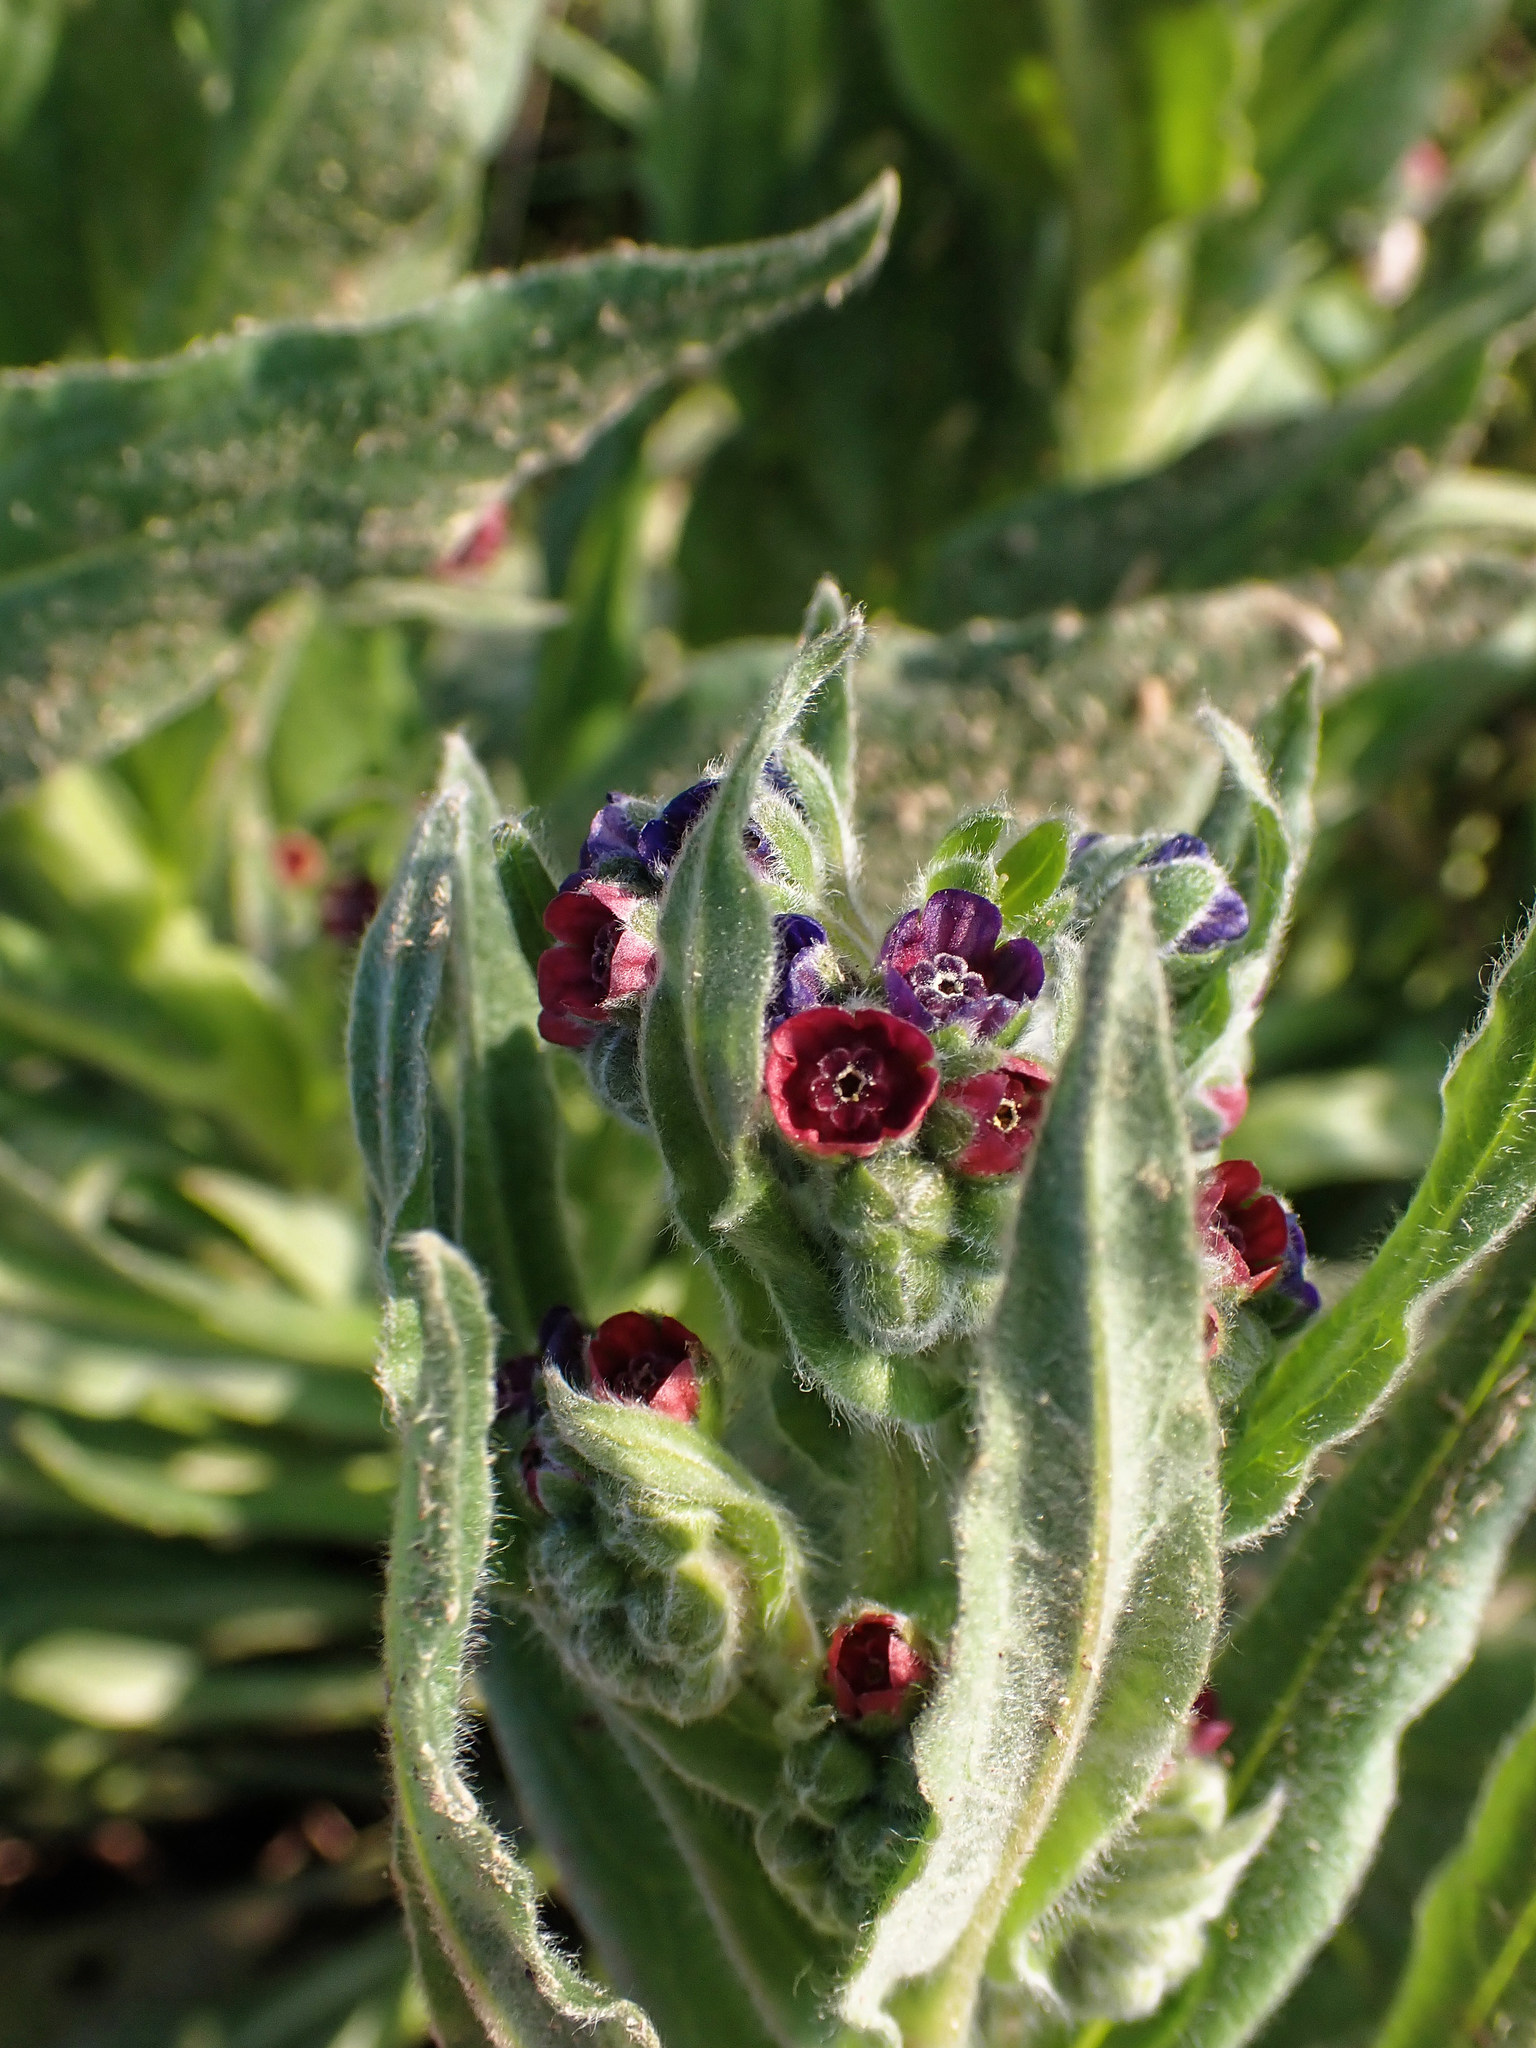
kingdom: Plantae
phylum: Tracheophyta
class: Magnoliopsida
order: Boraginales
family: Boraginaceae
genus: Cynoglossum
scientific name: Cynoglossum officinale
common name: Hound's-tongue
